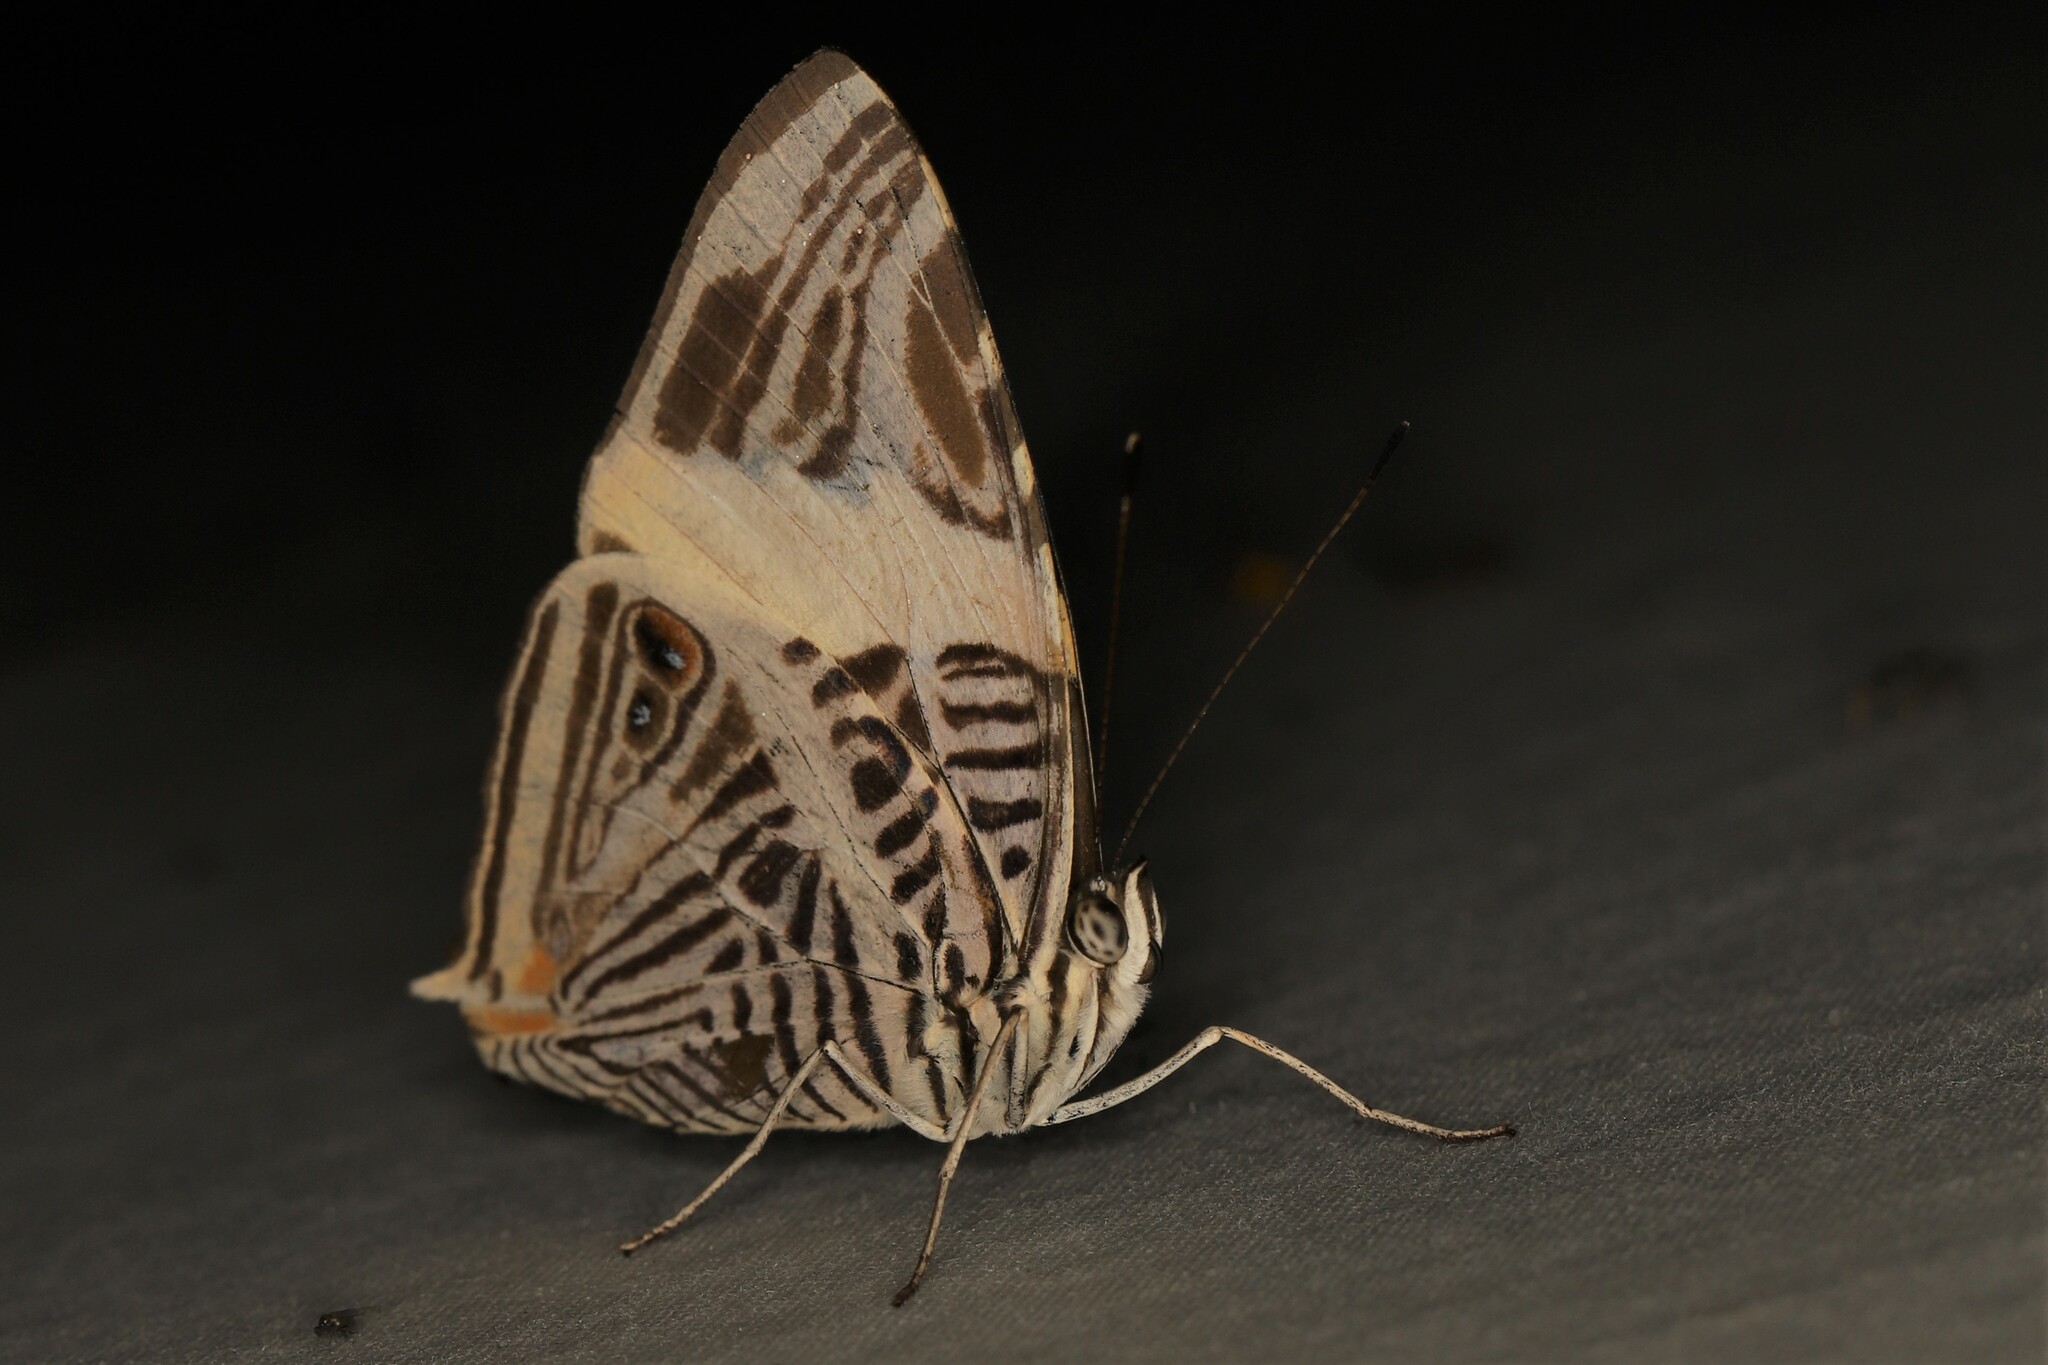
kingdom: Animalia
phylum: Arthropoda
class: Insecta
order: Lepidoptera
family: Nymphalidae
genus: Colobura
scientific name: Colobura dirce
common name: Dirce beauty
